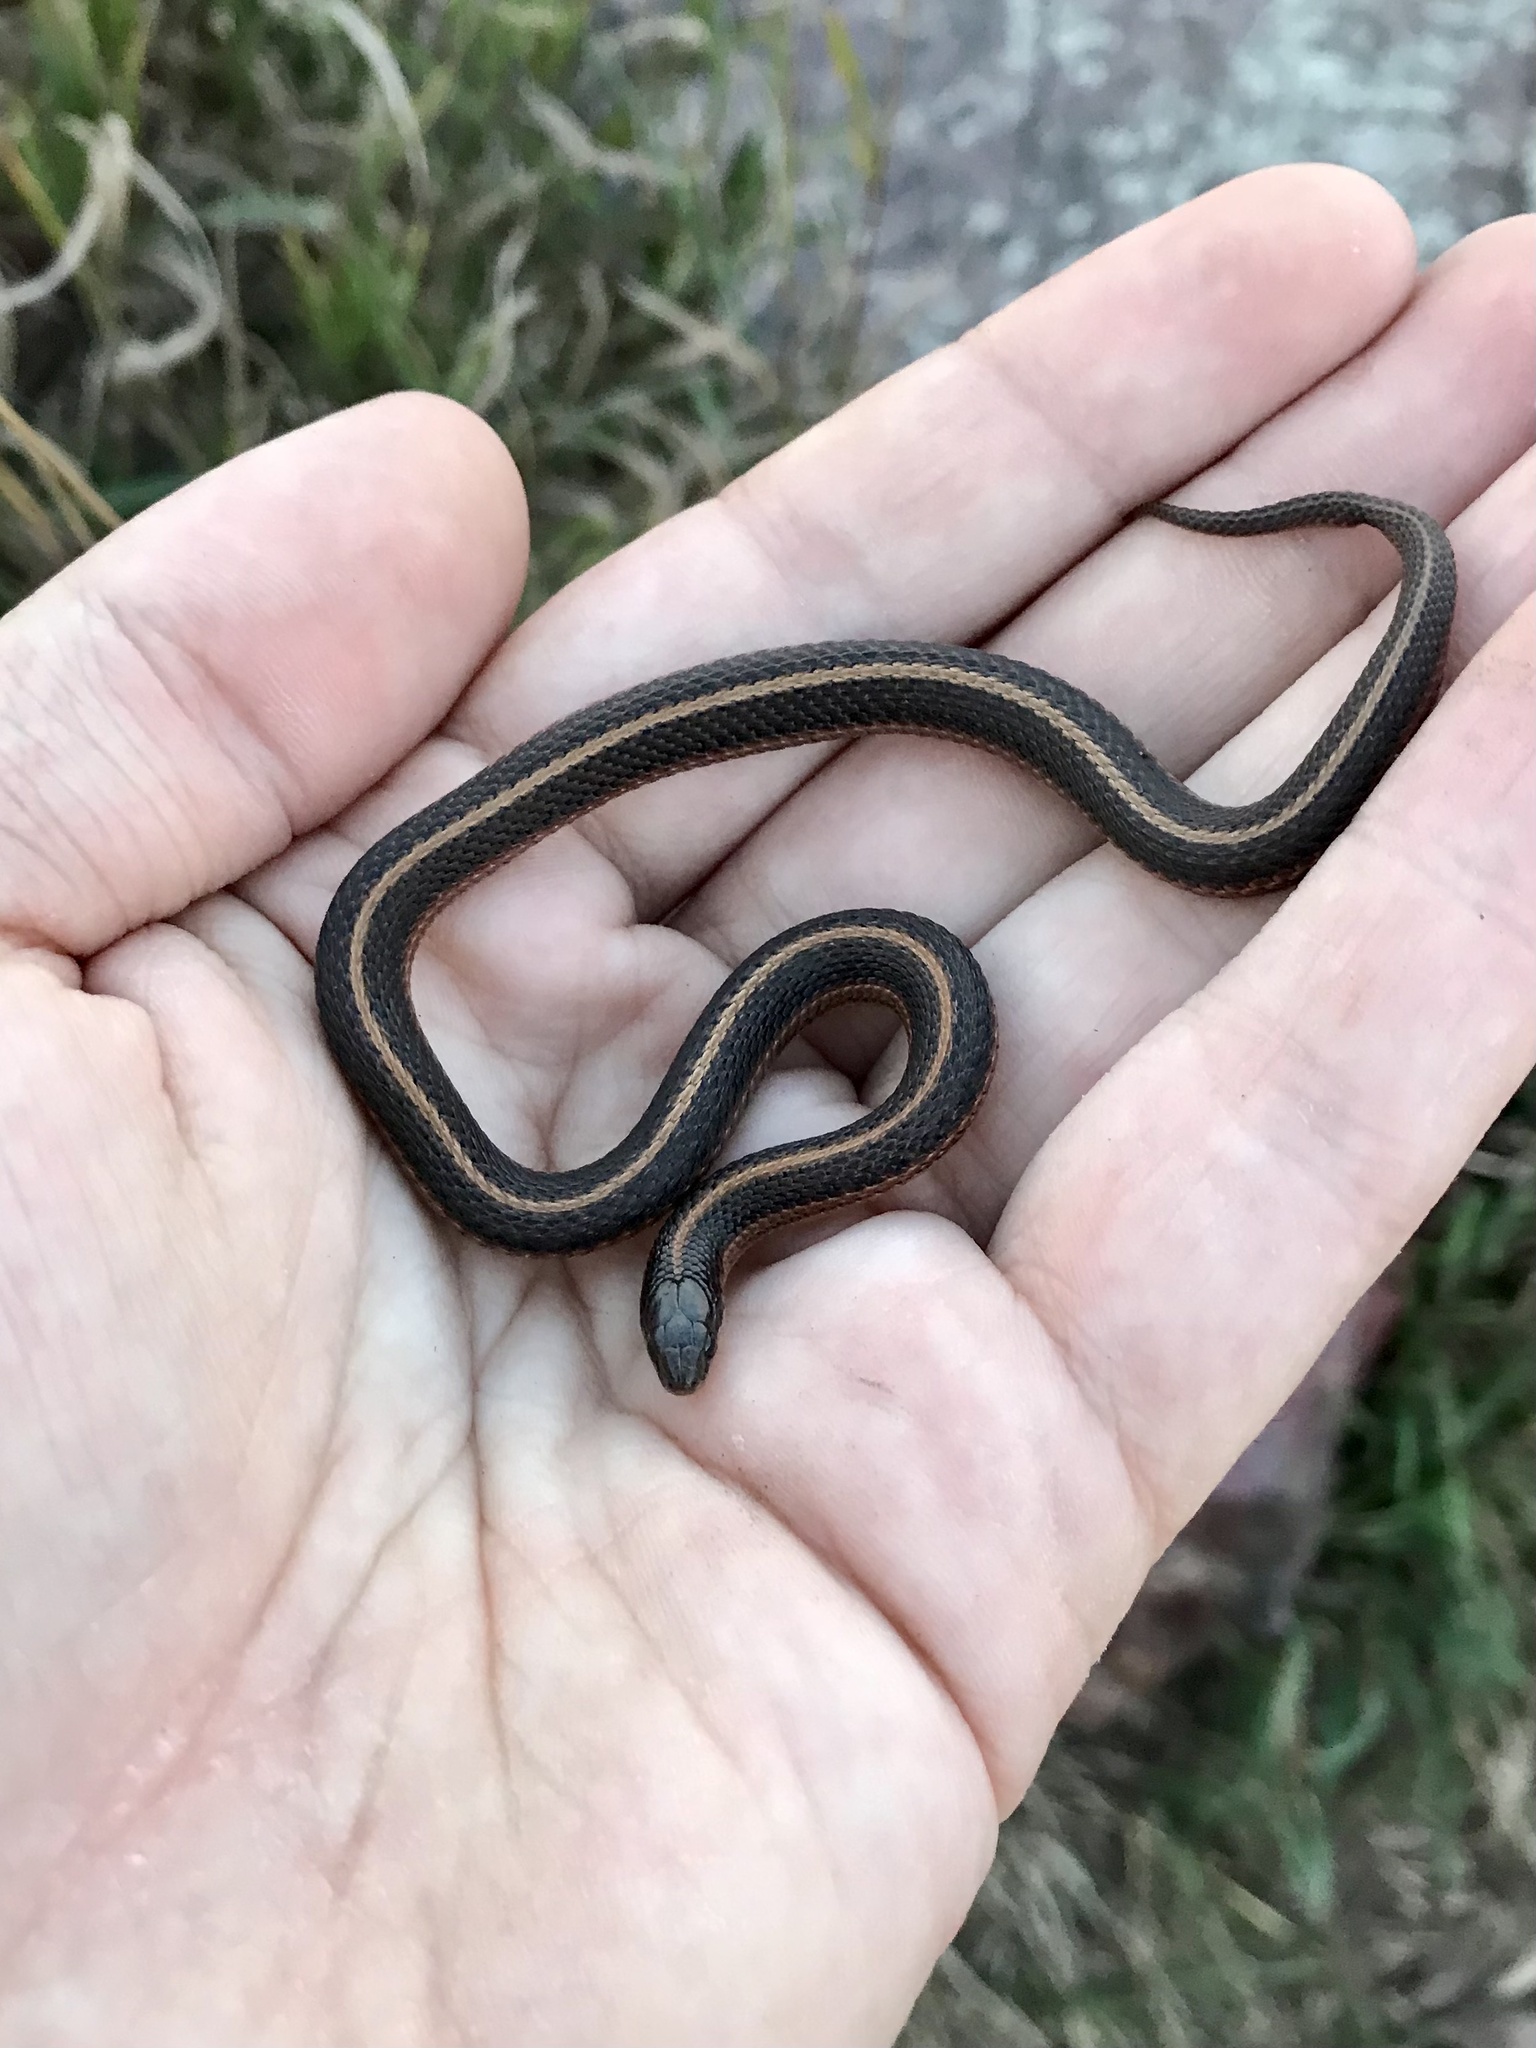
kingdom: Animalia
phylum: Chordata
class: Squamata
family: Colubridae
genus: Tropidoclonion
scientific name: Tropidoclonion lineatum
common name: Lined snake
